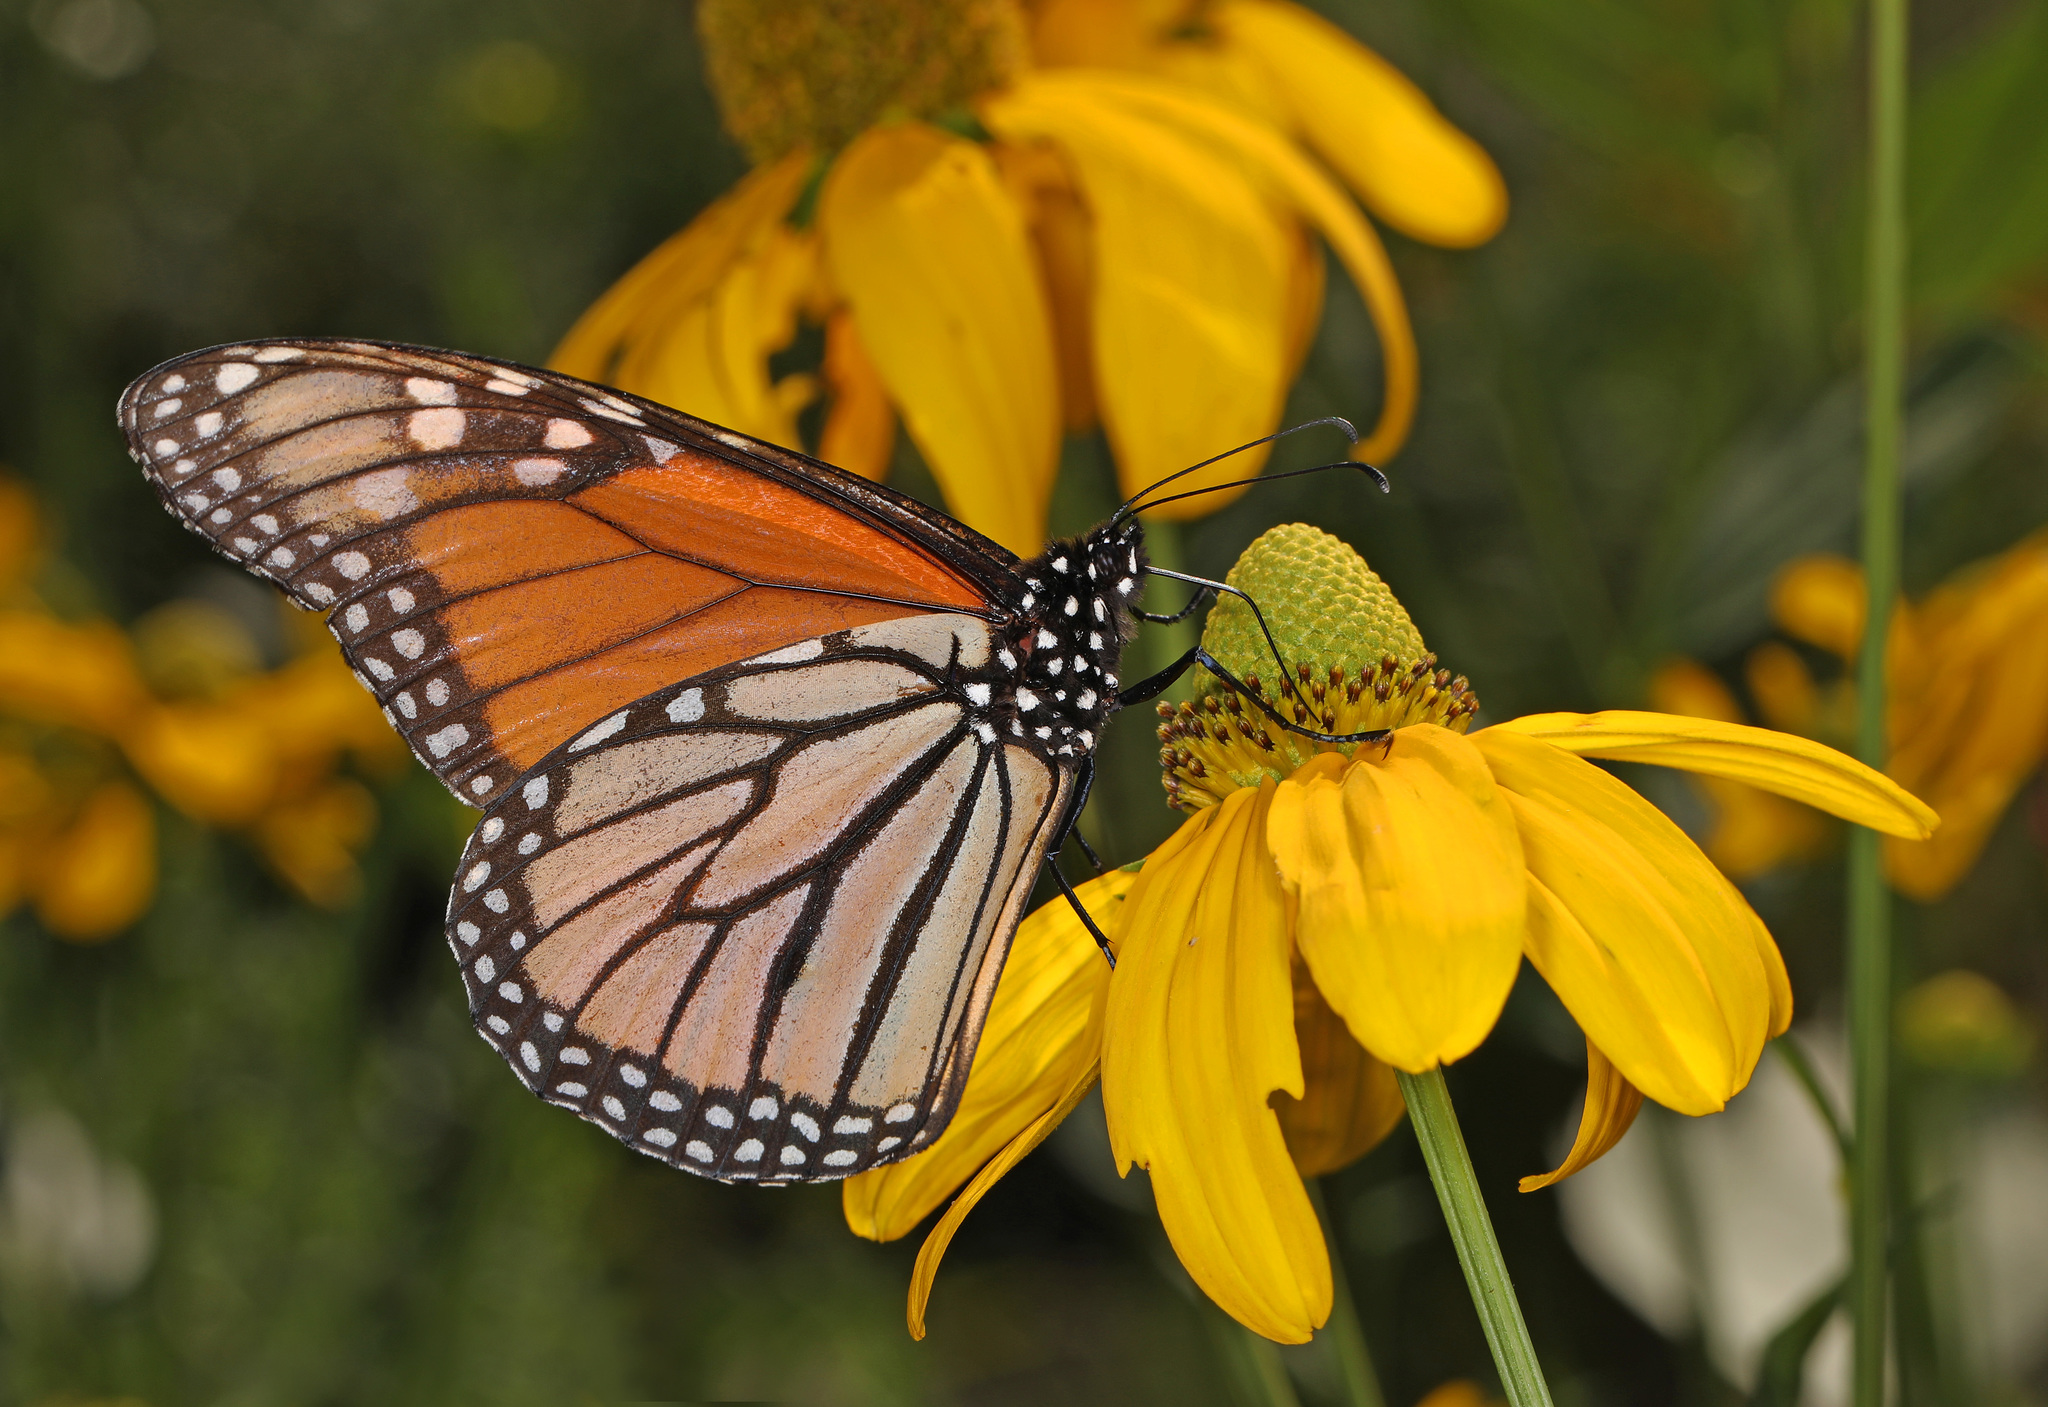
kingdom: Animalia
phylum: Arthropoda
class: Insecta
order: Lepidoptera
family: Nymphalidae
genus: Danaus
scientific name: Danaus plexippus
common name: Monarch
